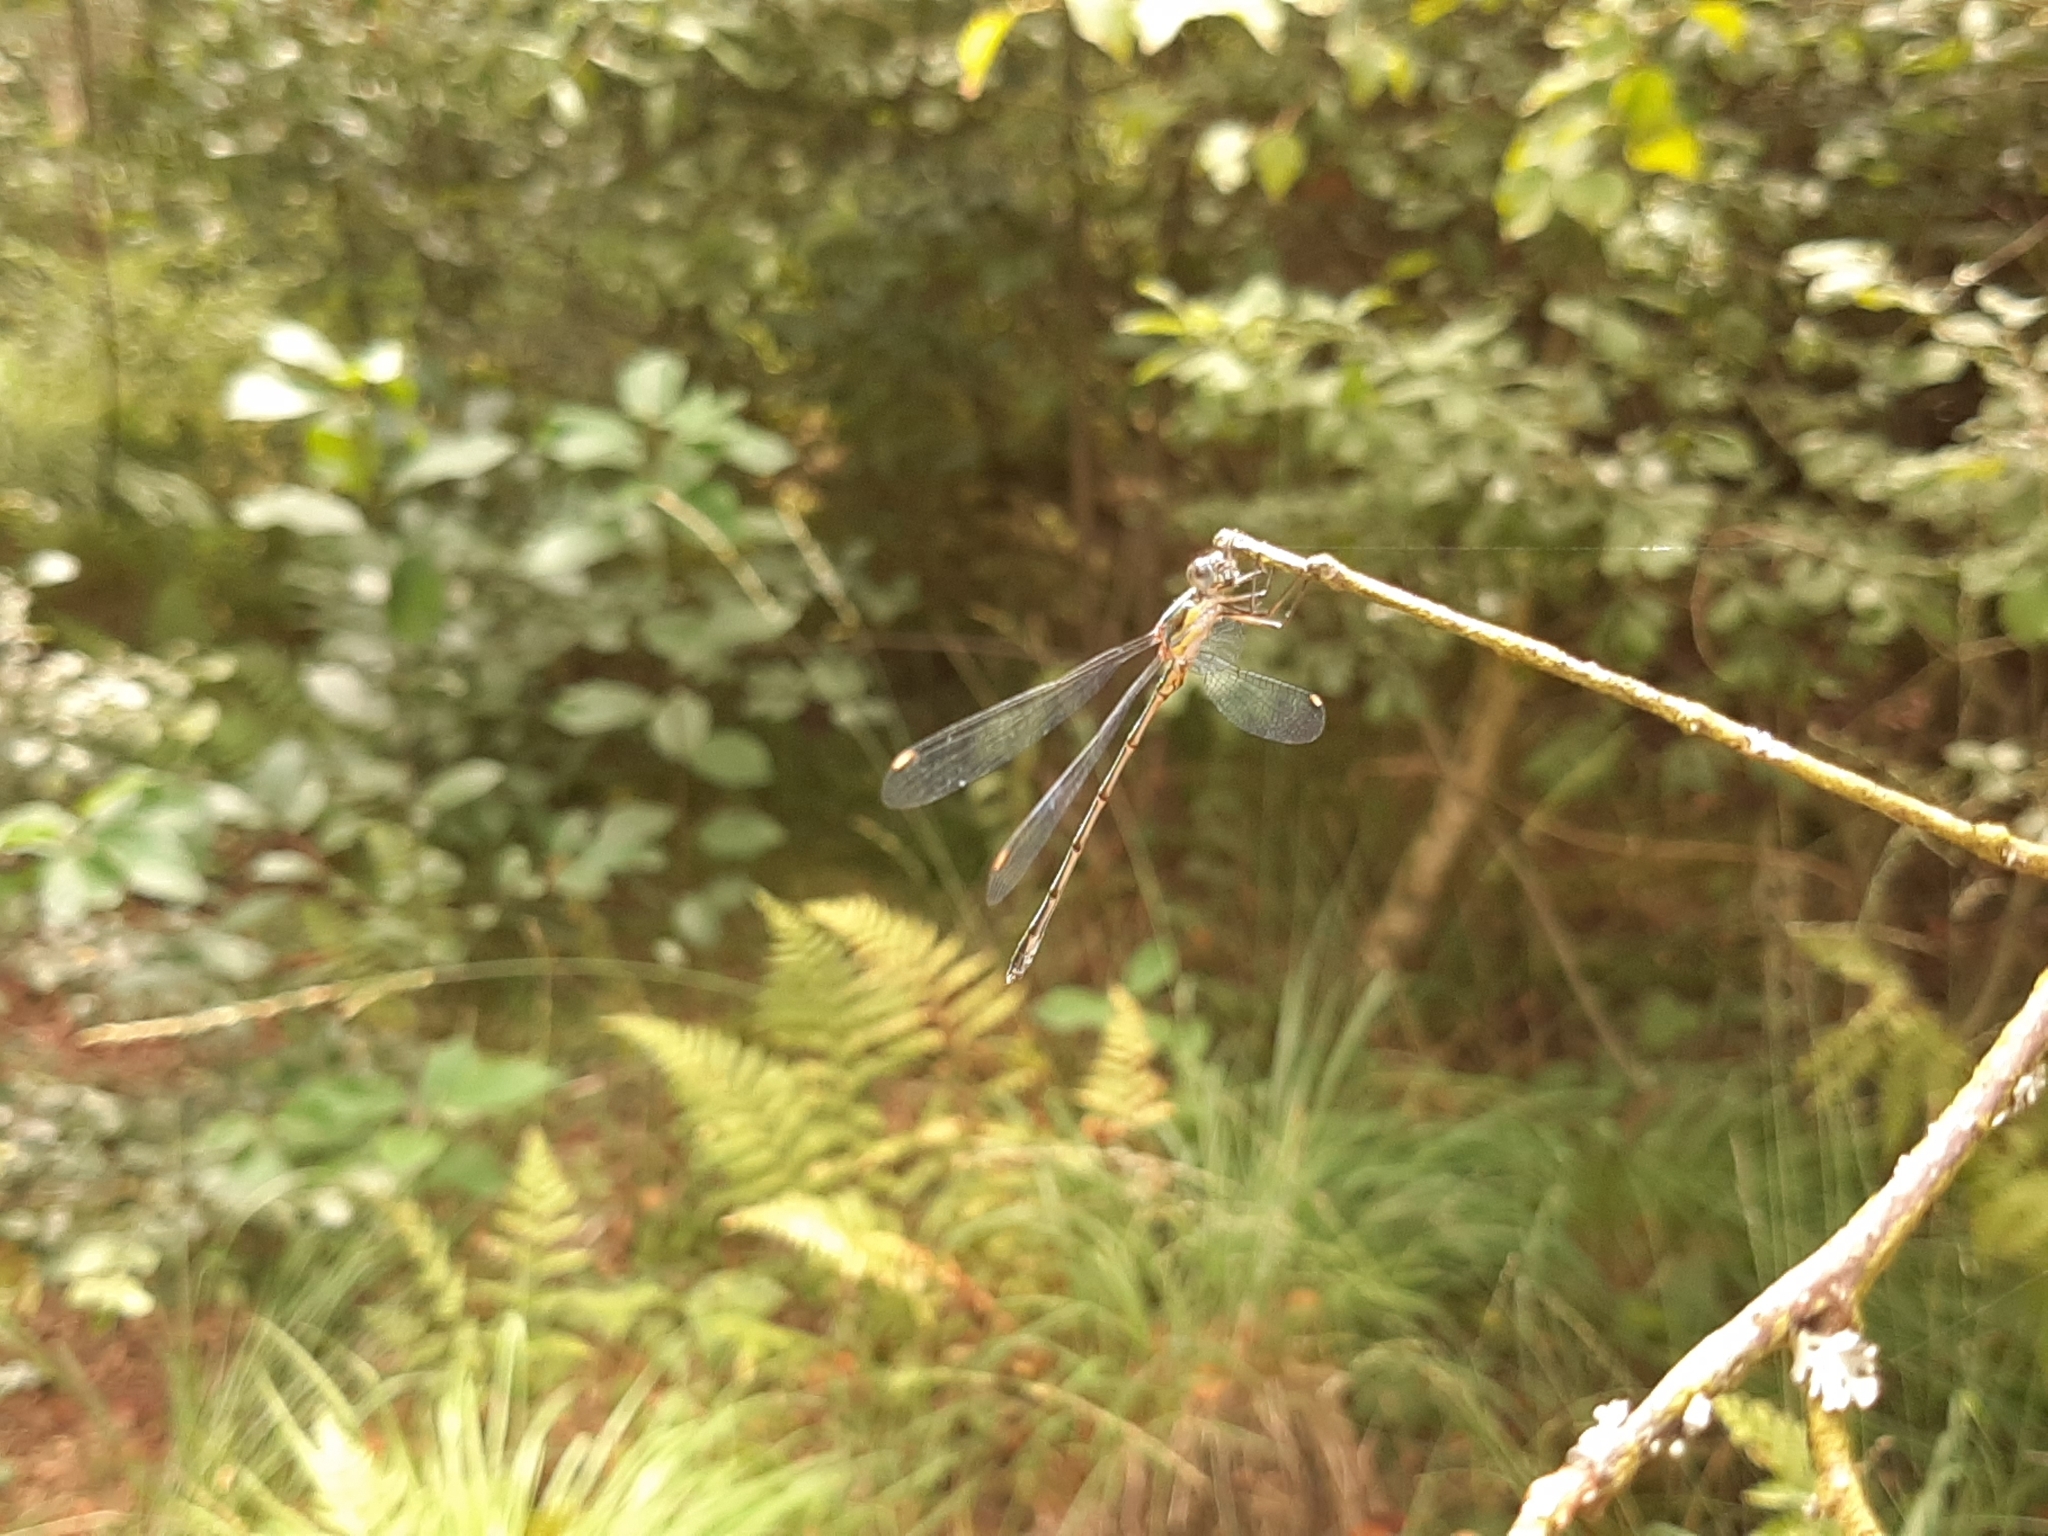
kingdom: Animalia
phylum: Arthropoda
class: Insecta
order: Odonata
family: Lestidae
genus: Chalcolestes
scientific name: Chalcolestes viridis
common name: Green emerald damselfly
